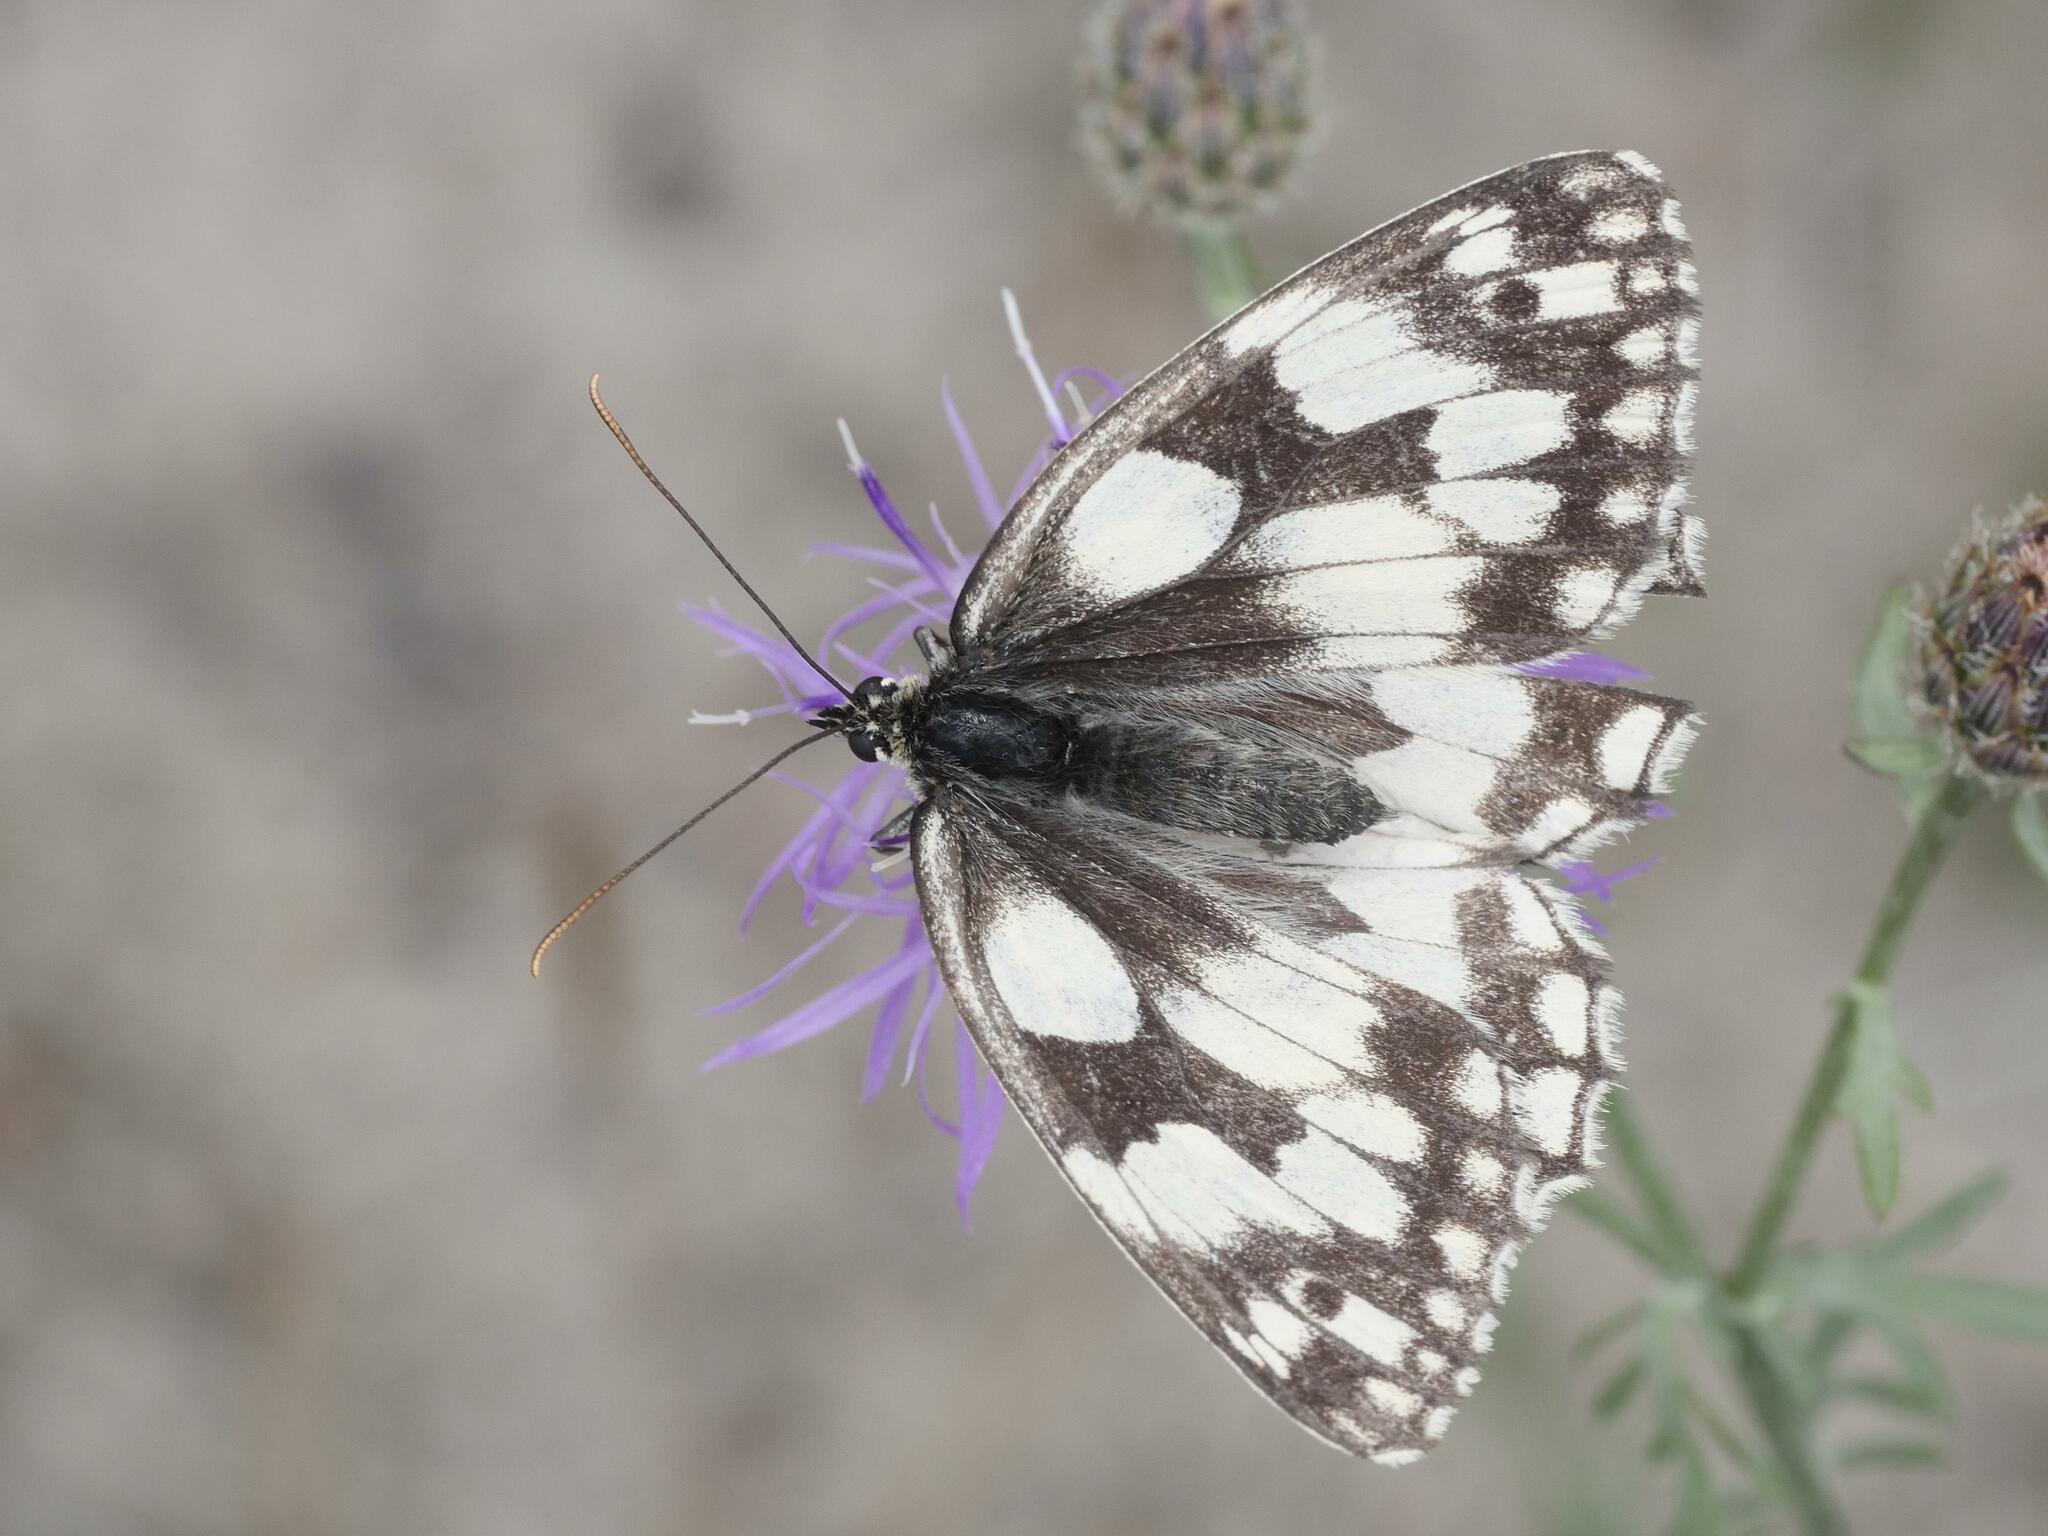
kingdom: Animalia
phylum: Arthropoda
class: Insecta
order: Lepidoptera
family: Nymphalidae
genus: Melanargia
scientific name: Melanargia galathea
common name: Marbled white
